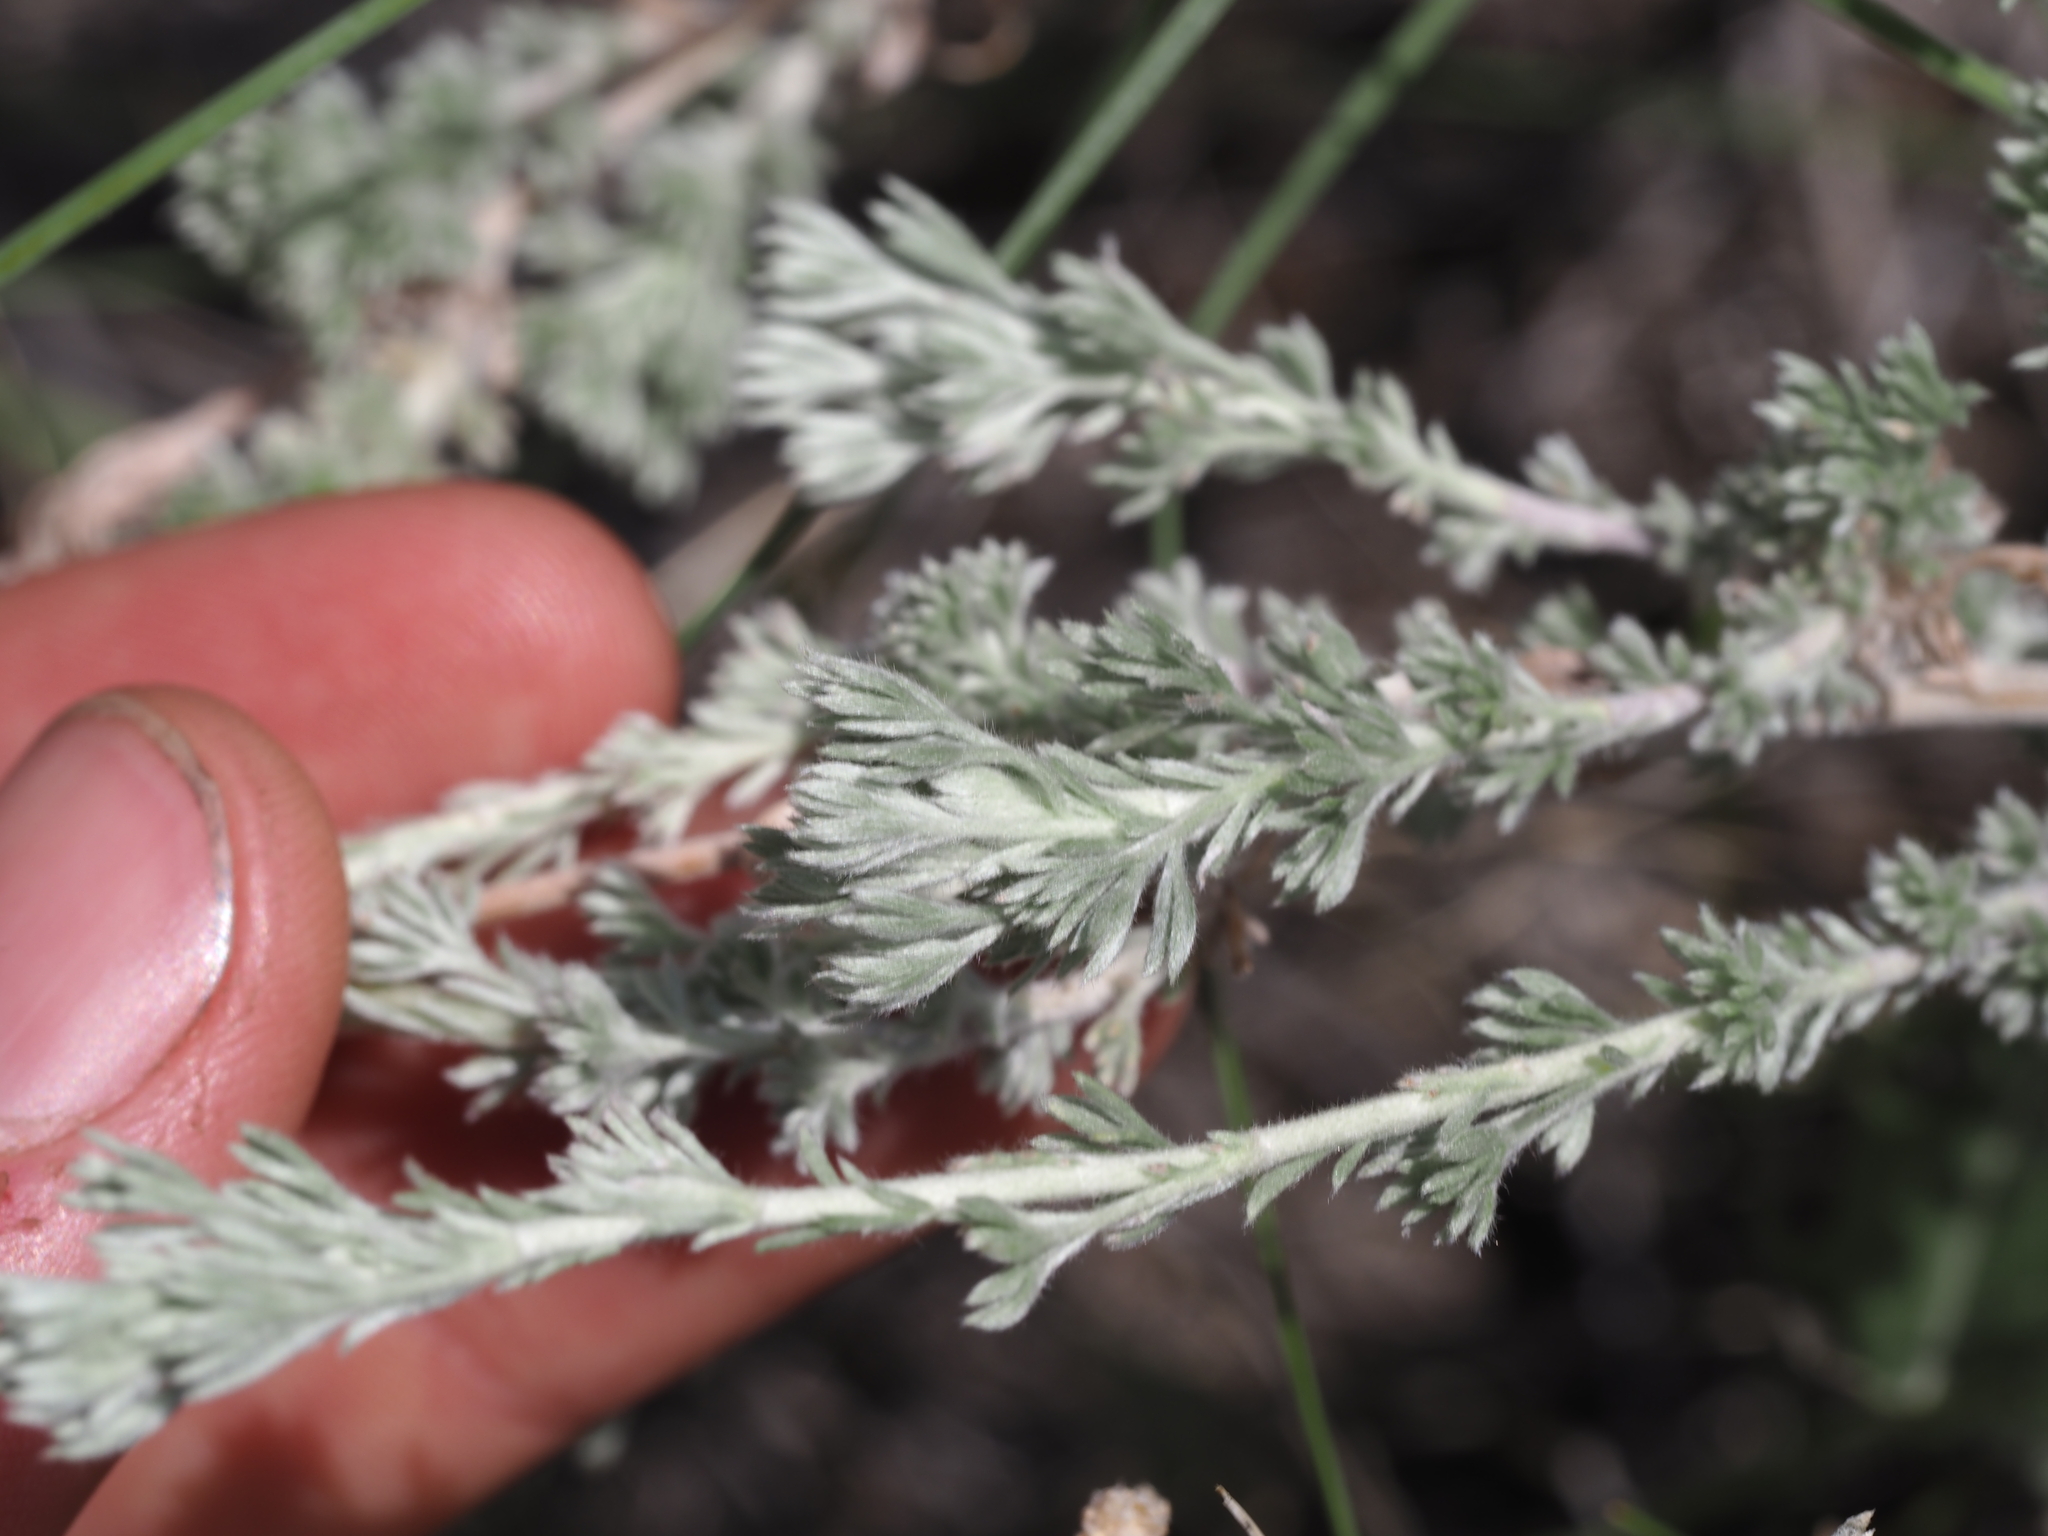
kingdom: Plantae
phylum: Tracheophyta
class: Magnoliopsida
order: Asterales
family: Asteraceae
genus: Artemisia
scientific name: Artemisia frigida
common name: Prairie sagewort
